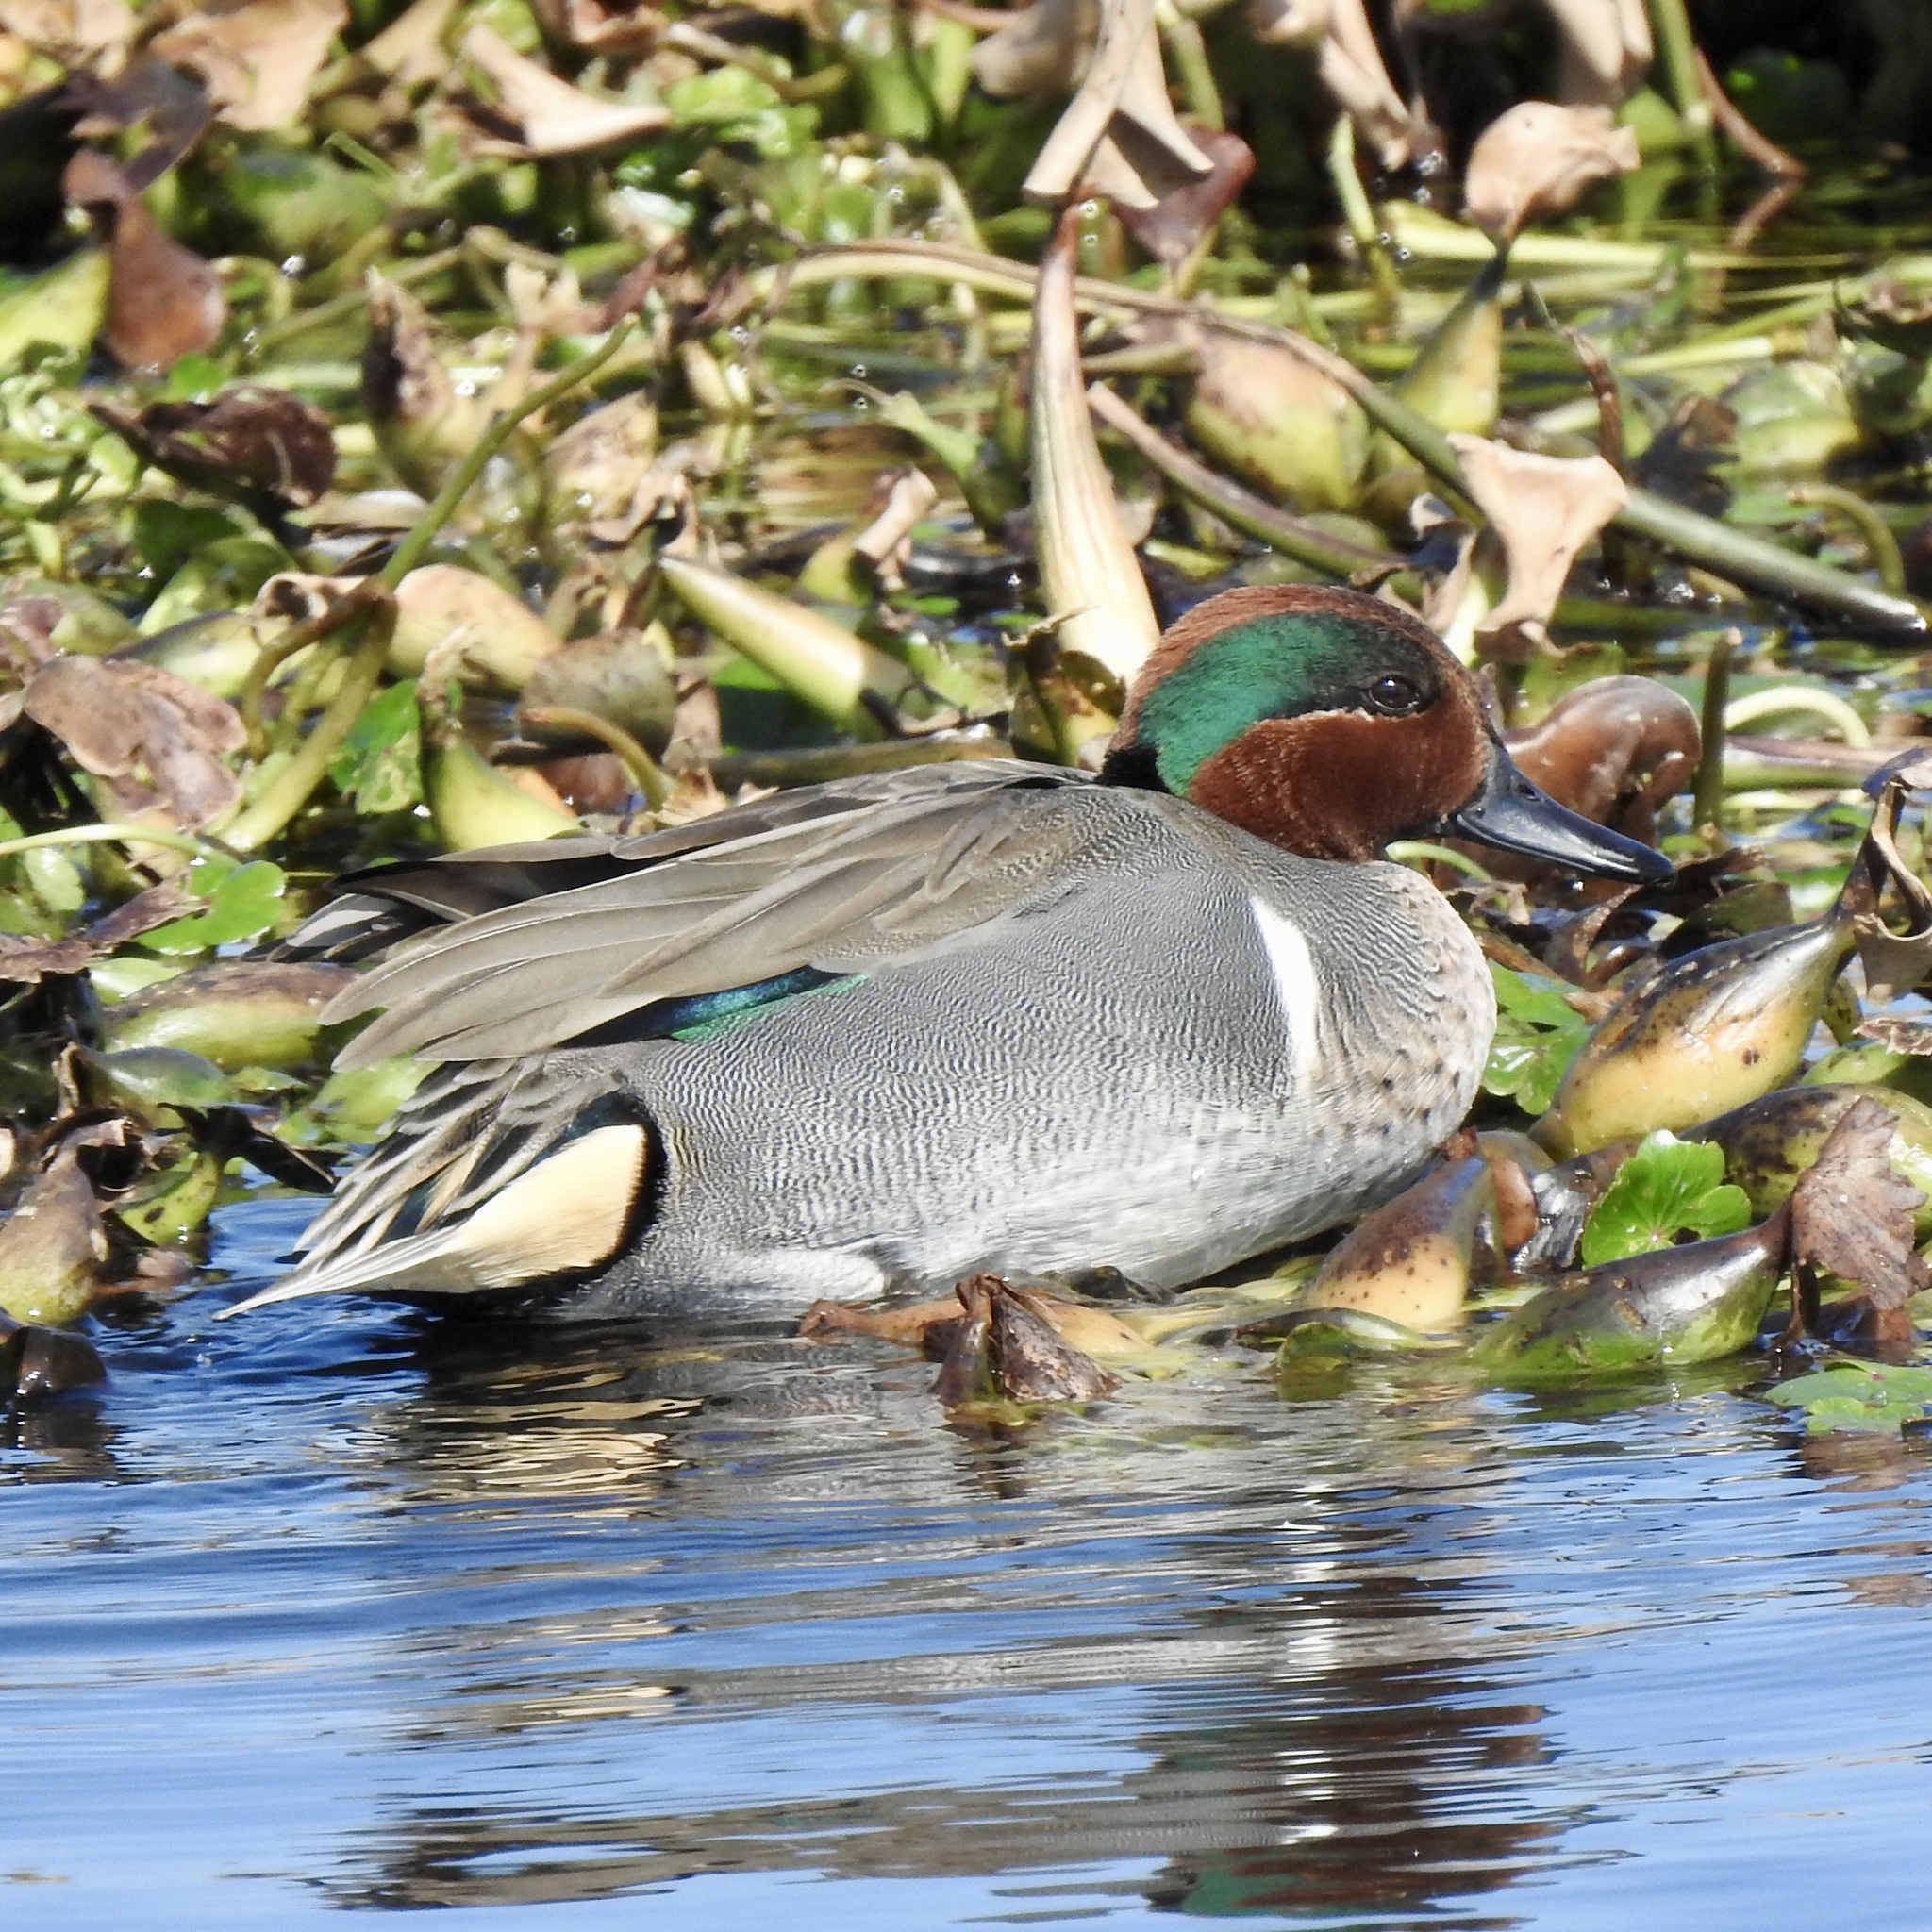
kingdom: Animalia
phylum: Chordata
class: Aves
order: Anseriformes
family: Anatidae
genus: Anas
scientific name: Anas crecca
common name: Eurasian teal
